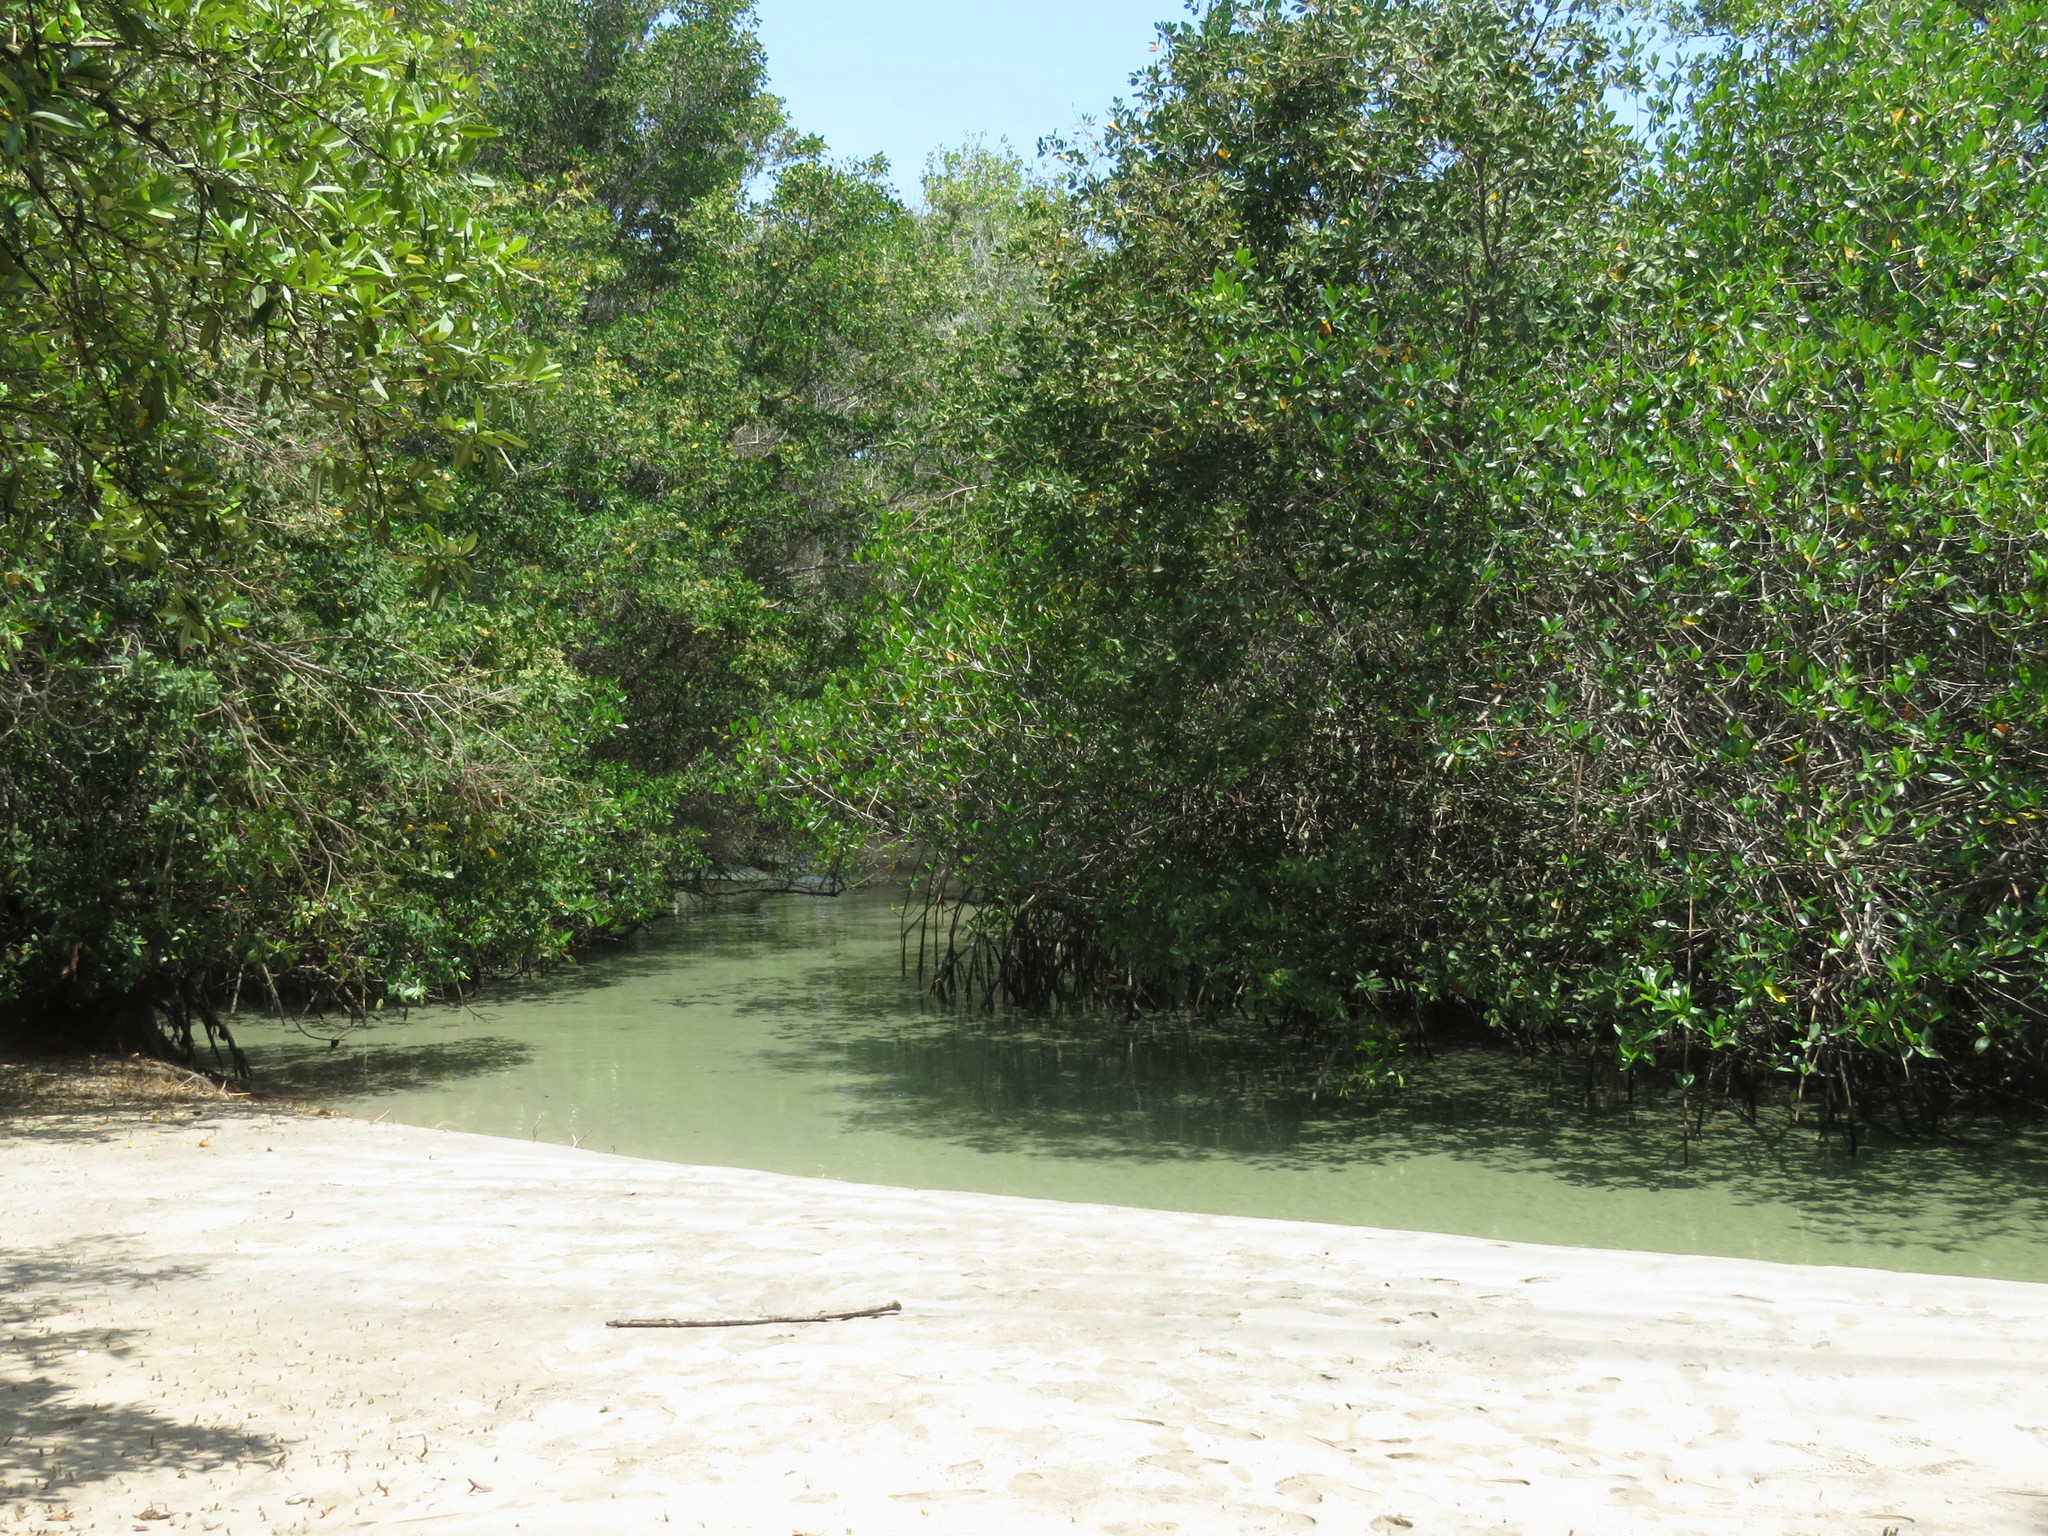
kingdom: Plantae
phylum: Tracheophyta
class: Magnoliopsida
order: Malpighiales
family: Rhizophoraceae
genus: Rhizophora
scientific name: Rhizophora mangle
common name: Red mangrove
